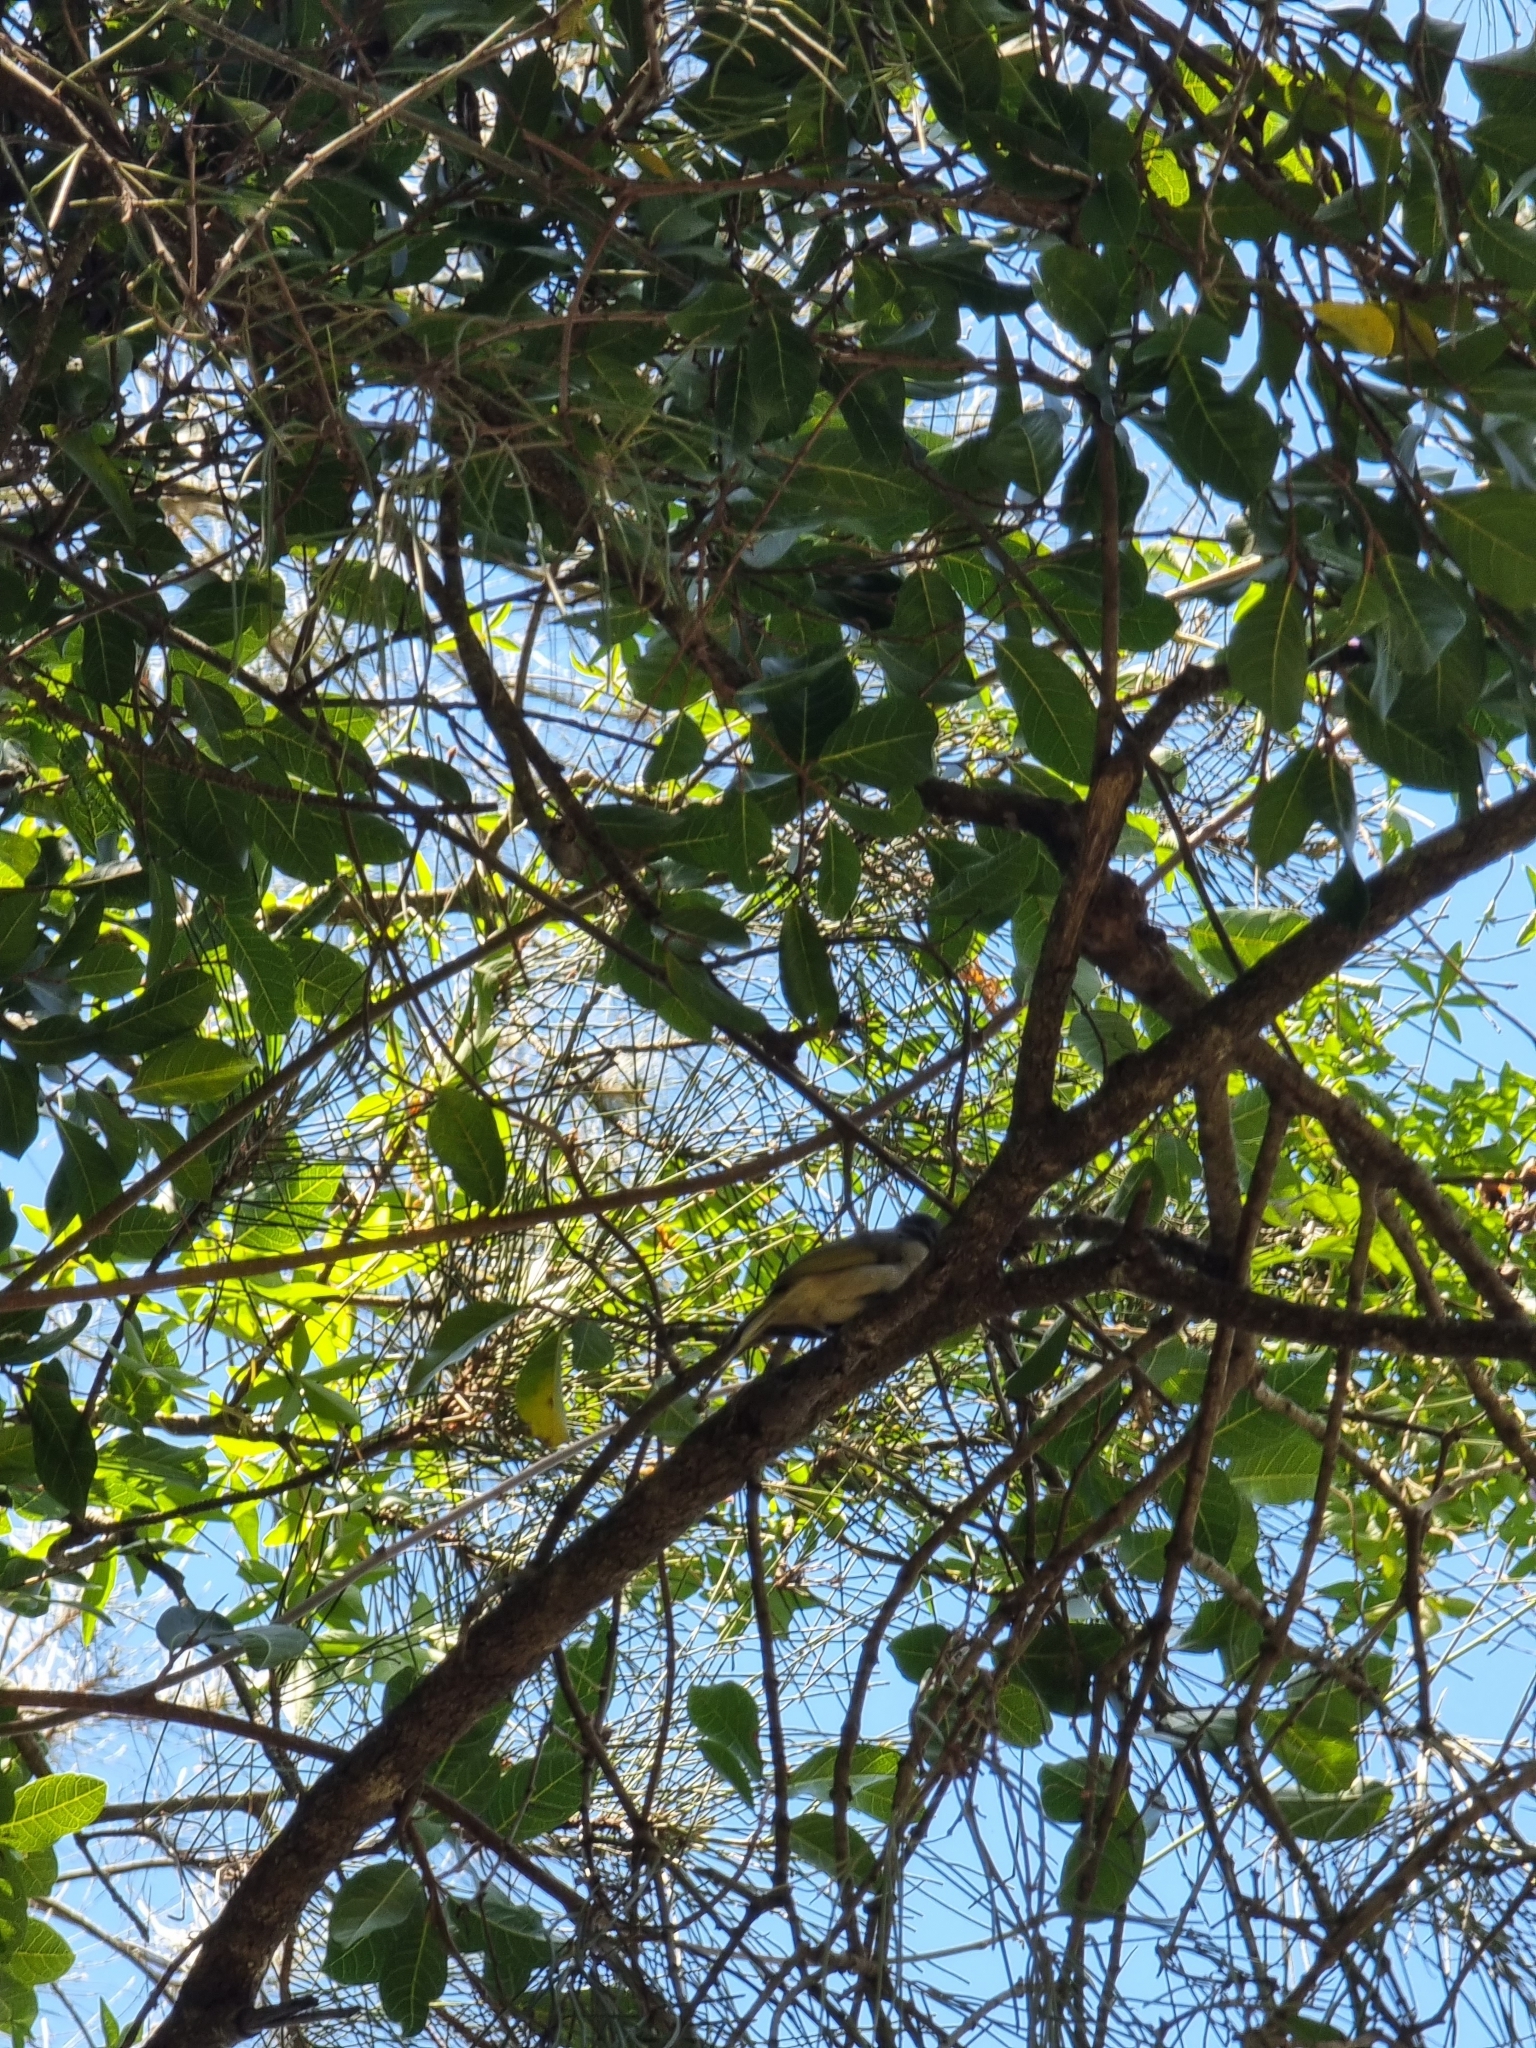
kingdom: Animalia
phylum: Chordata
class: Aves
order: Passeriformes
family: Meliphagidae
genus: Lichmera
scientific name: Lichmera indistincta
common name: Brown honeyeater
